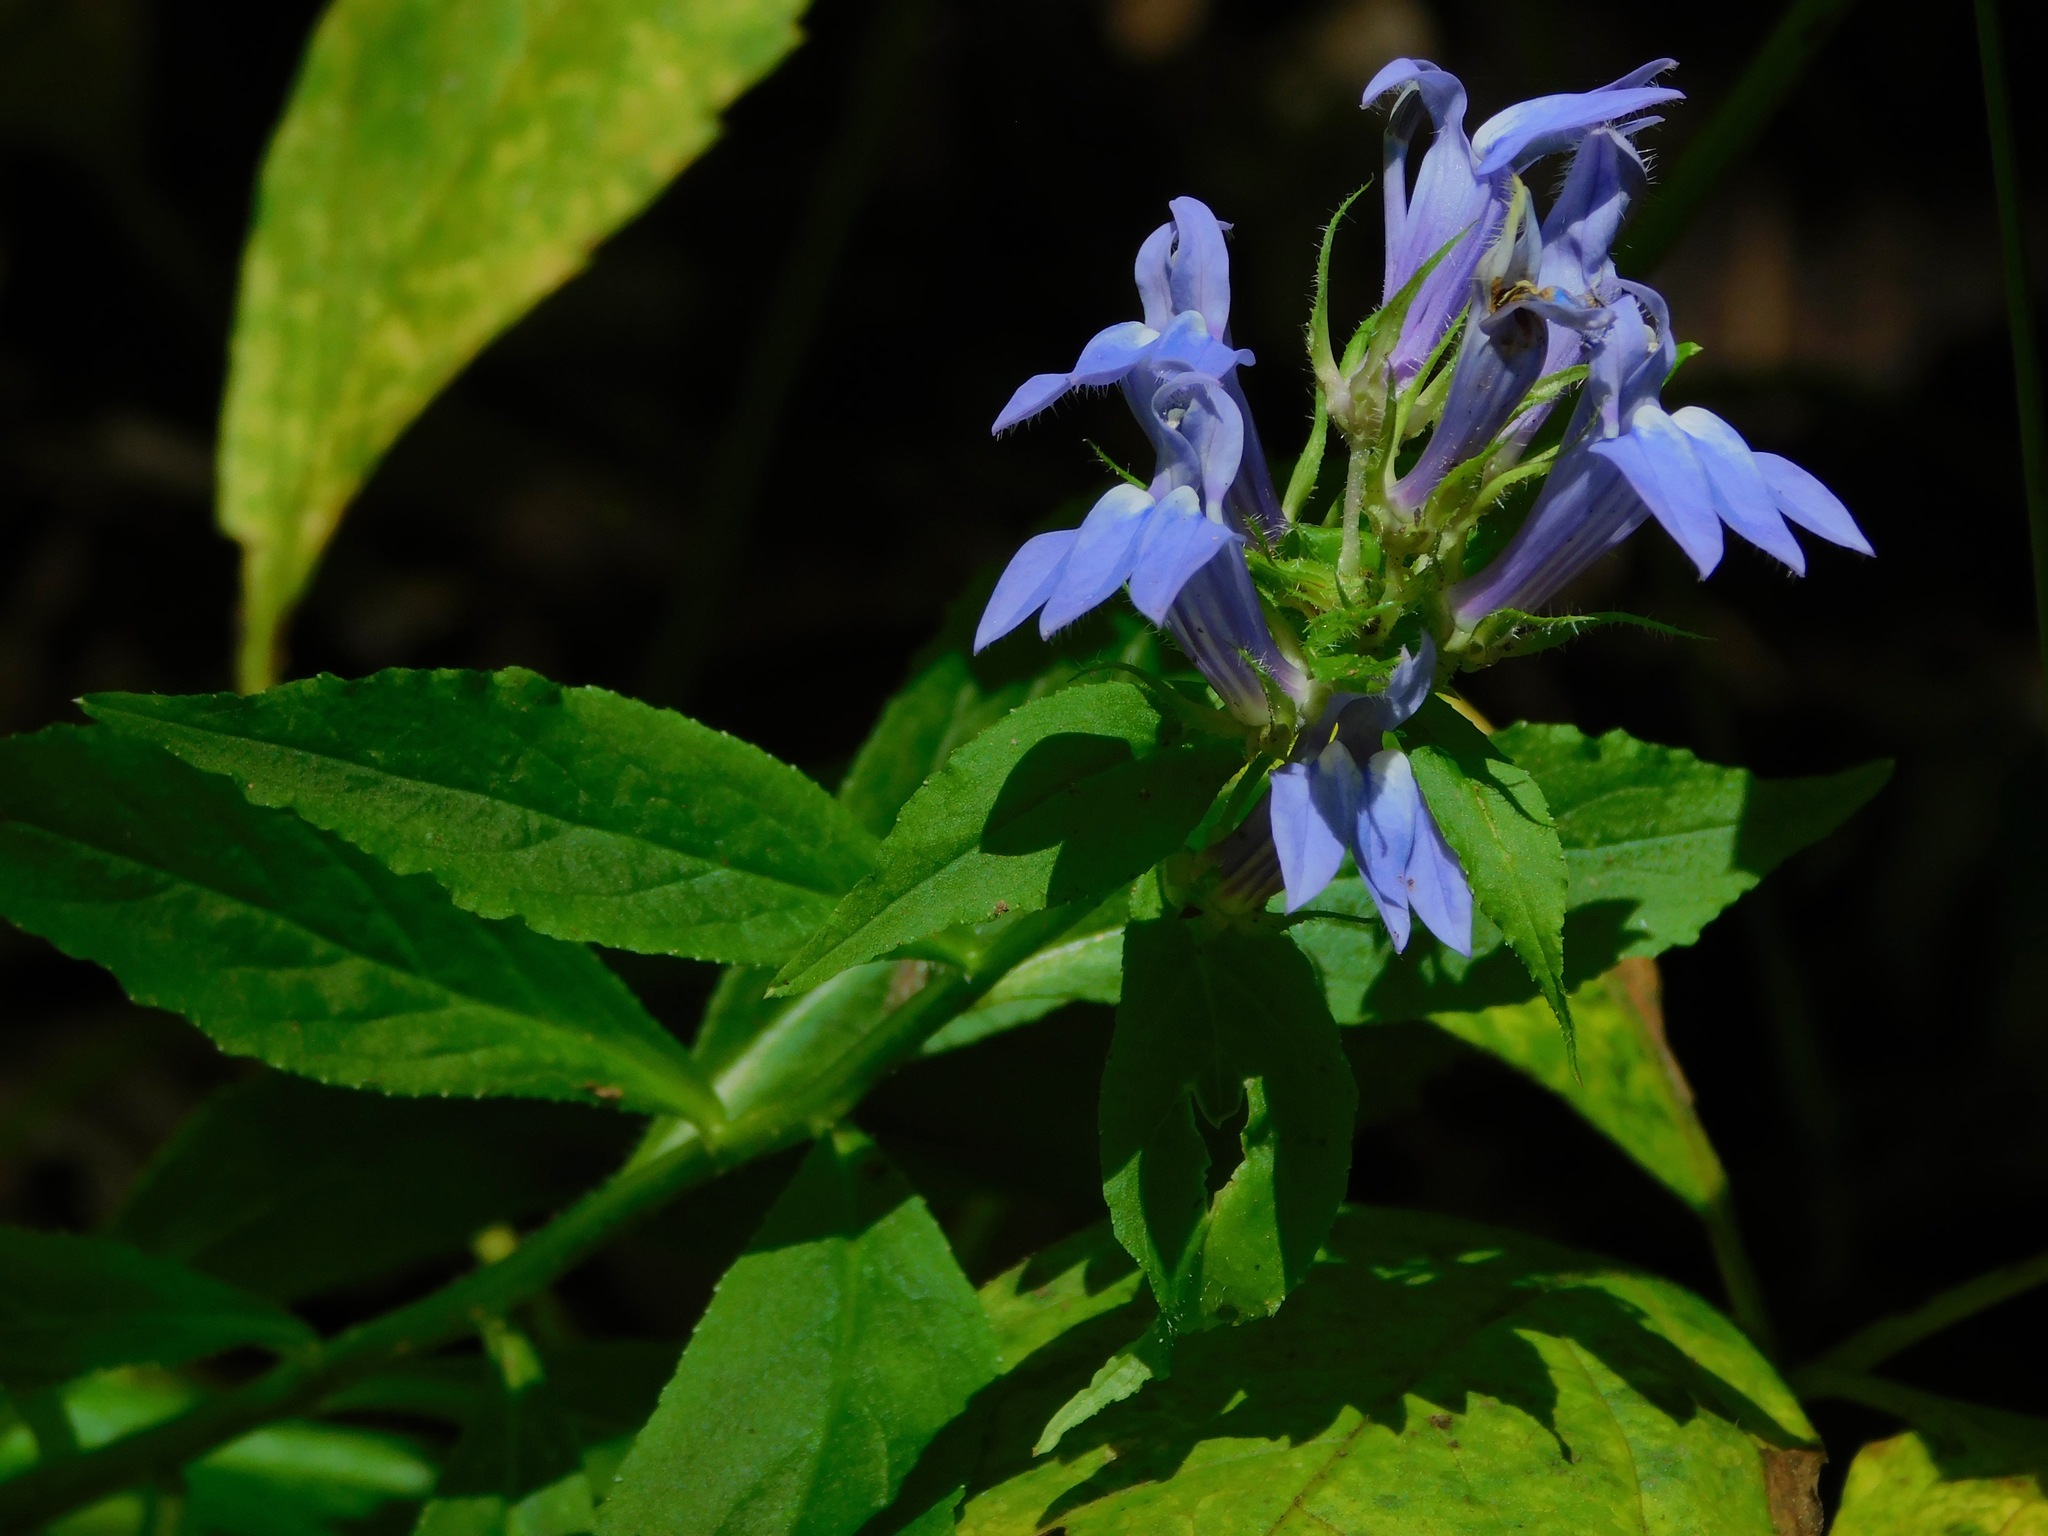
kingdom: Plantae
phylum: Tracheophyta
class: Magnoliopsida
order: Asterales
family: Campanulaceae
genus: Lobelia
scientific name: Lobelia siphilitica
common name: Great lobelia
